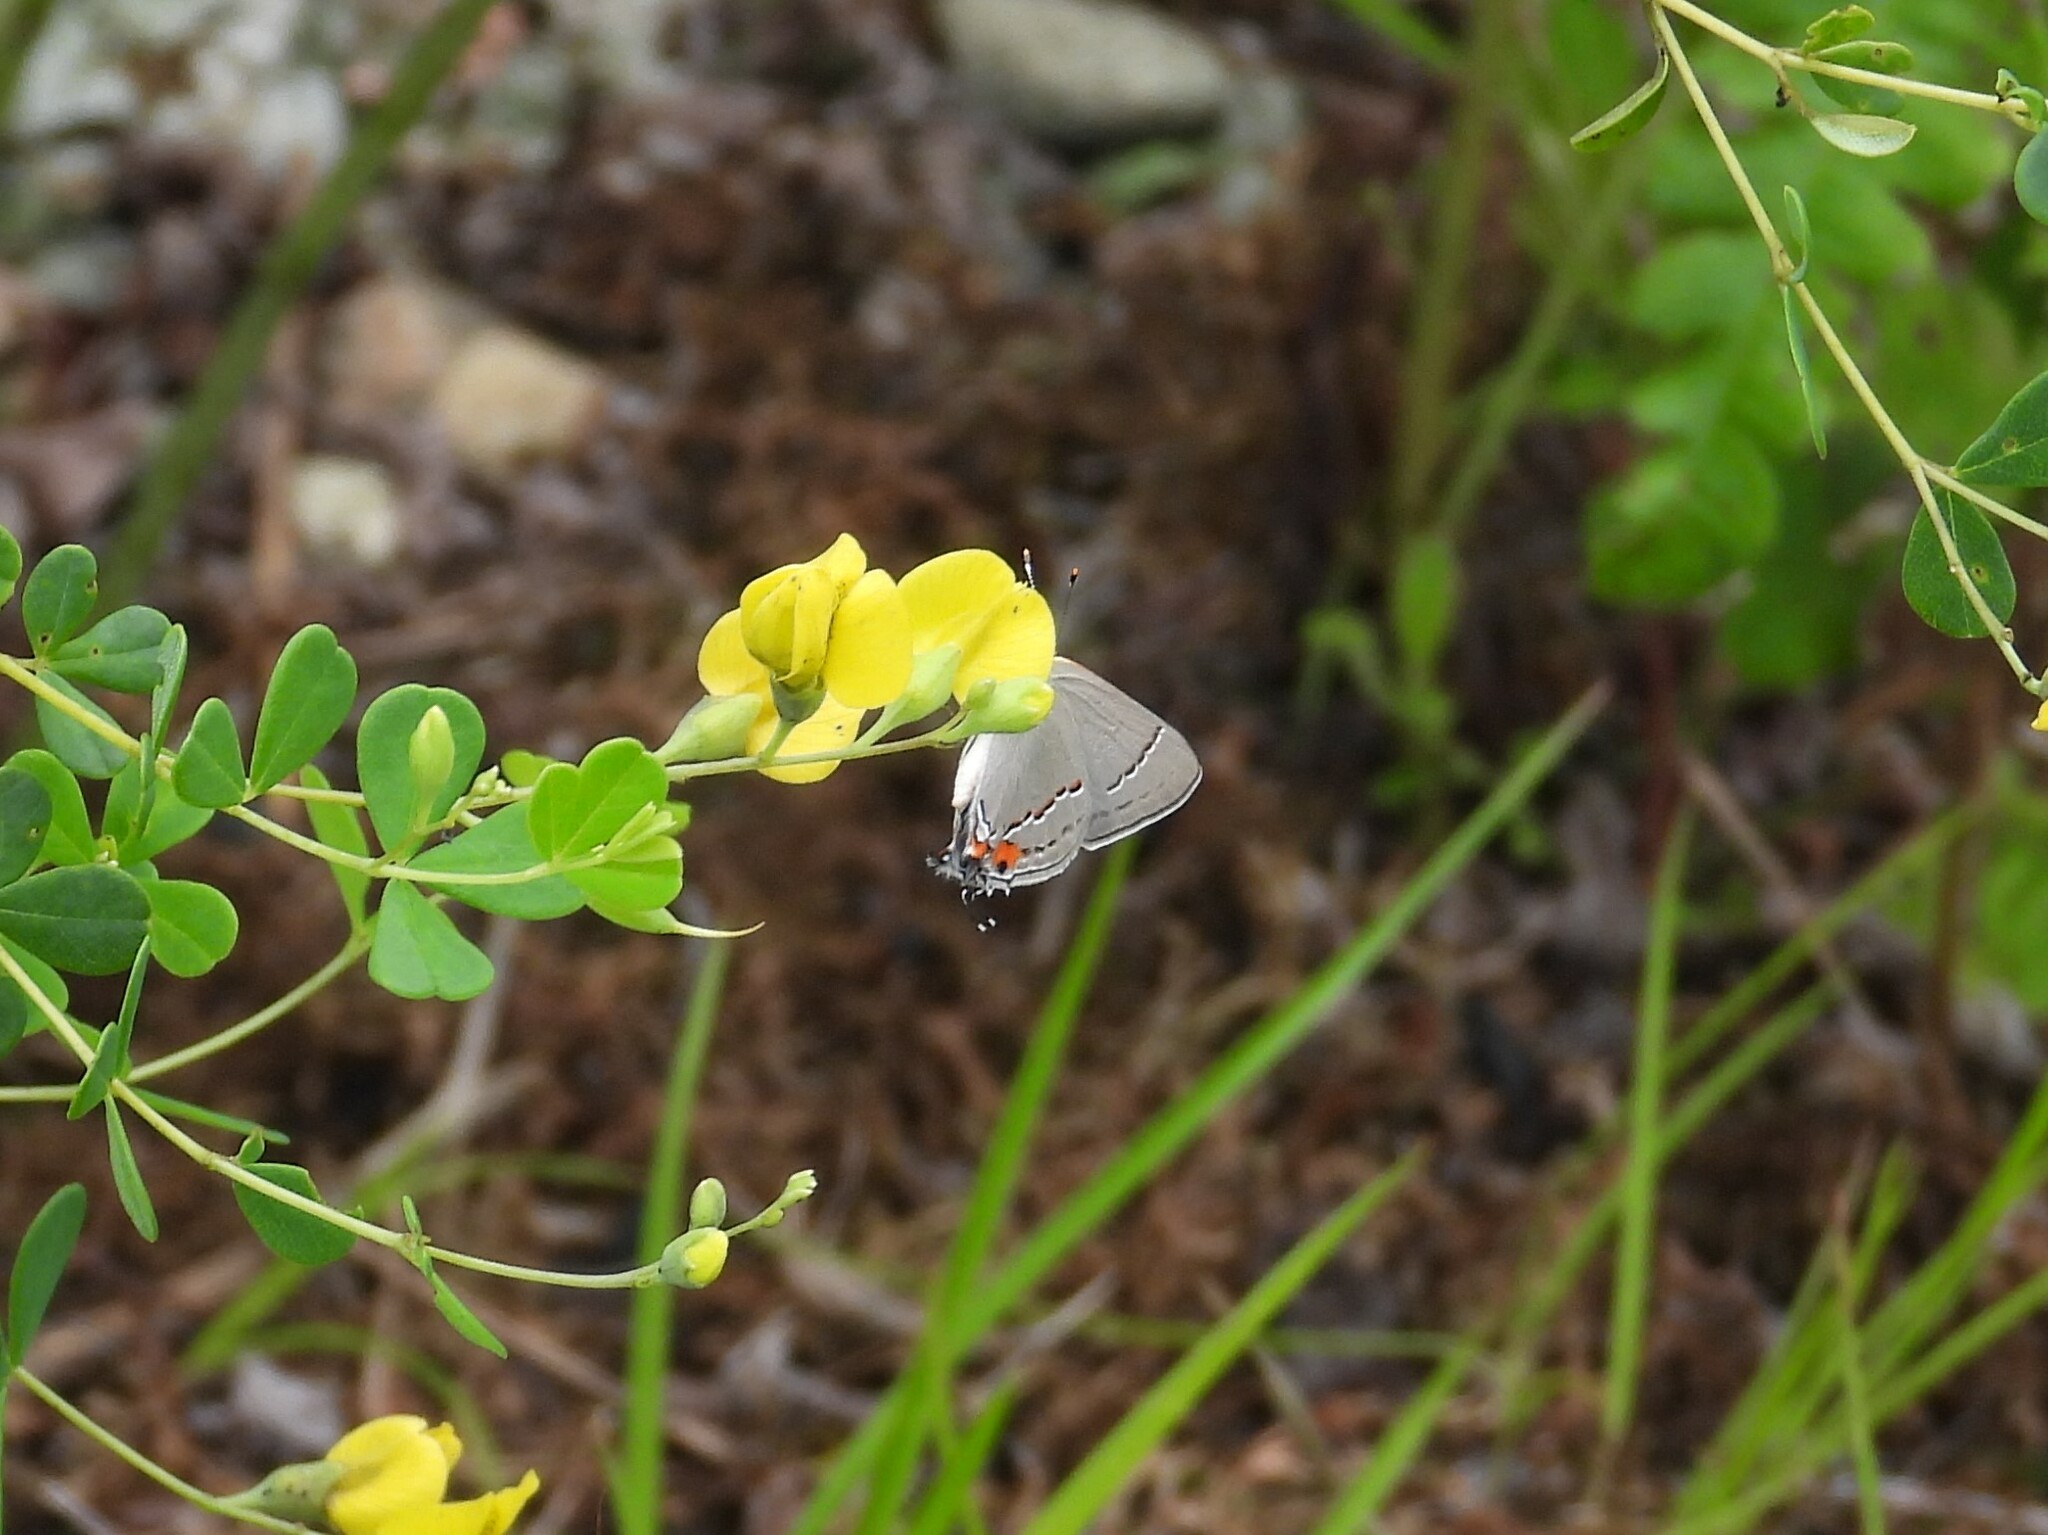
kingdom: Animalia
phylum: Arthropoda
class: Insecta
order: Lepidoptera
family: Lycaenidae
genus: Strymon
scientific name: Strymon melinus
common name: Gray hairstreak
